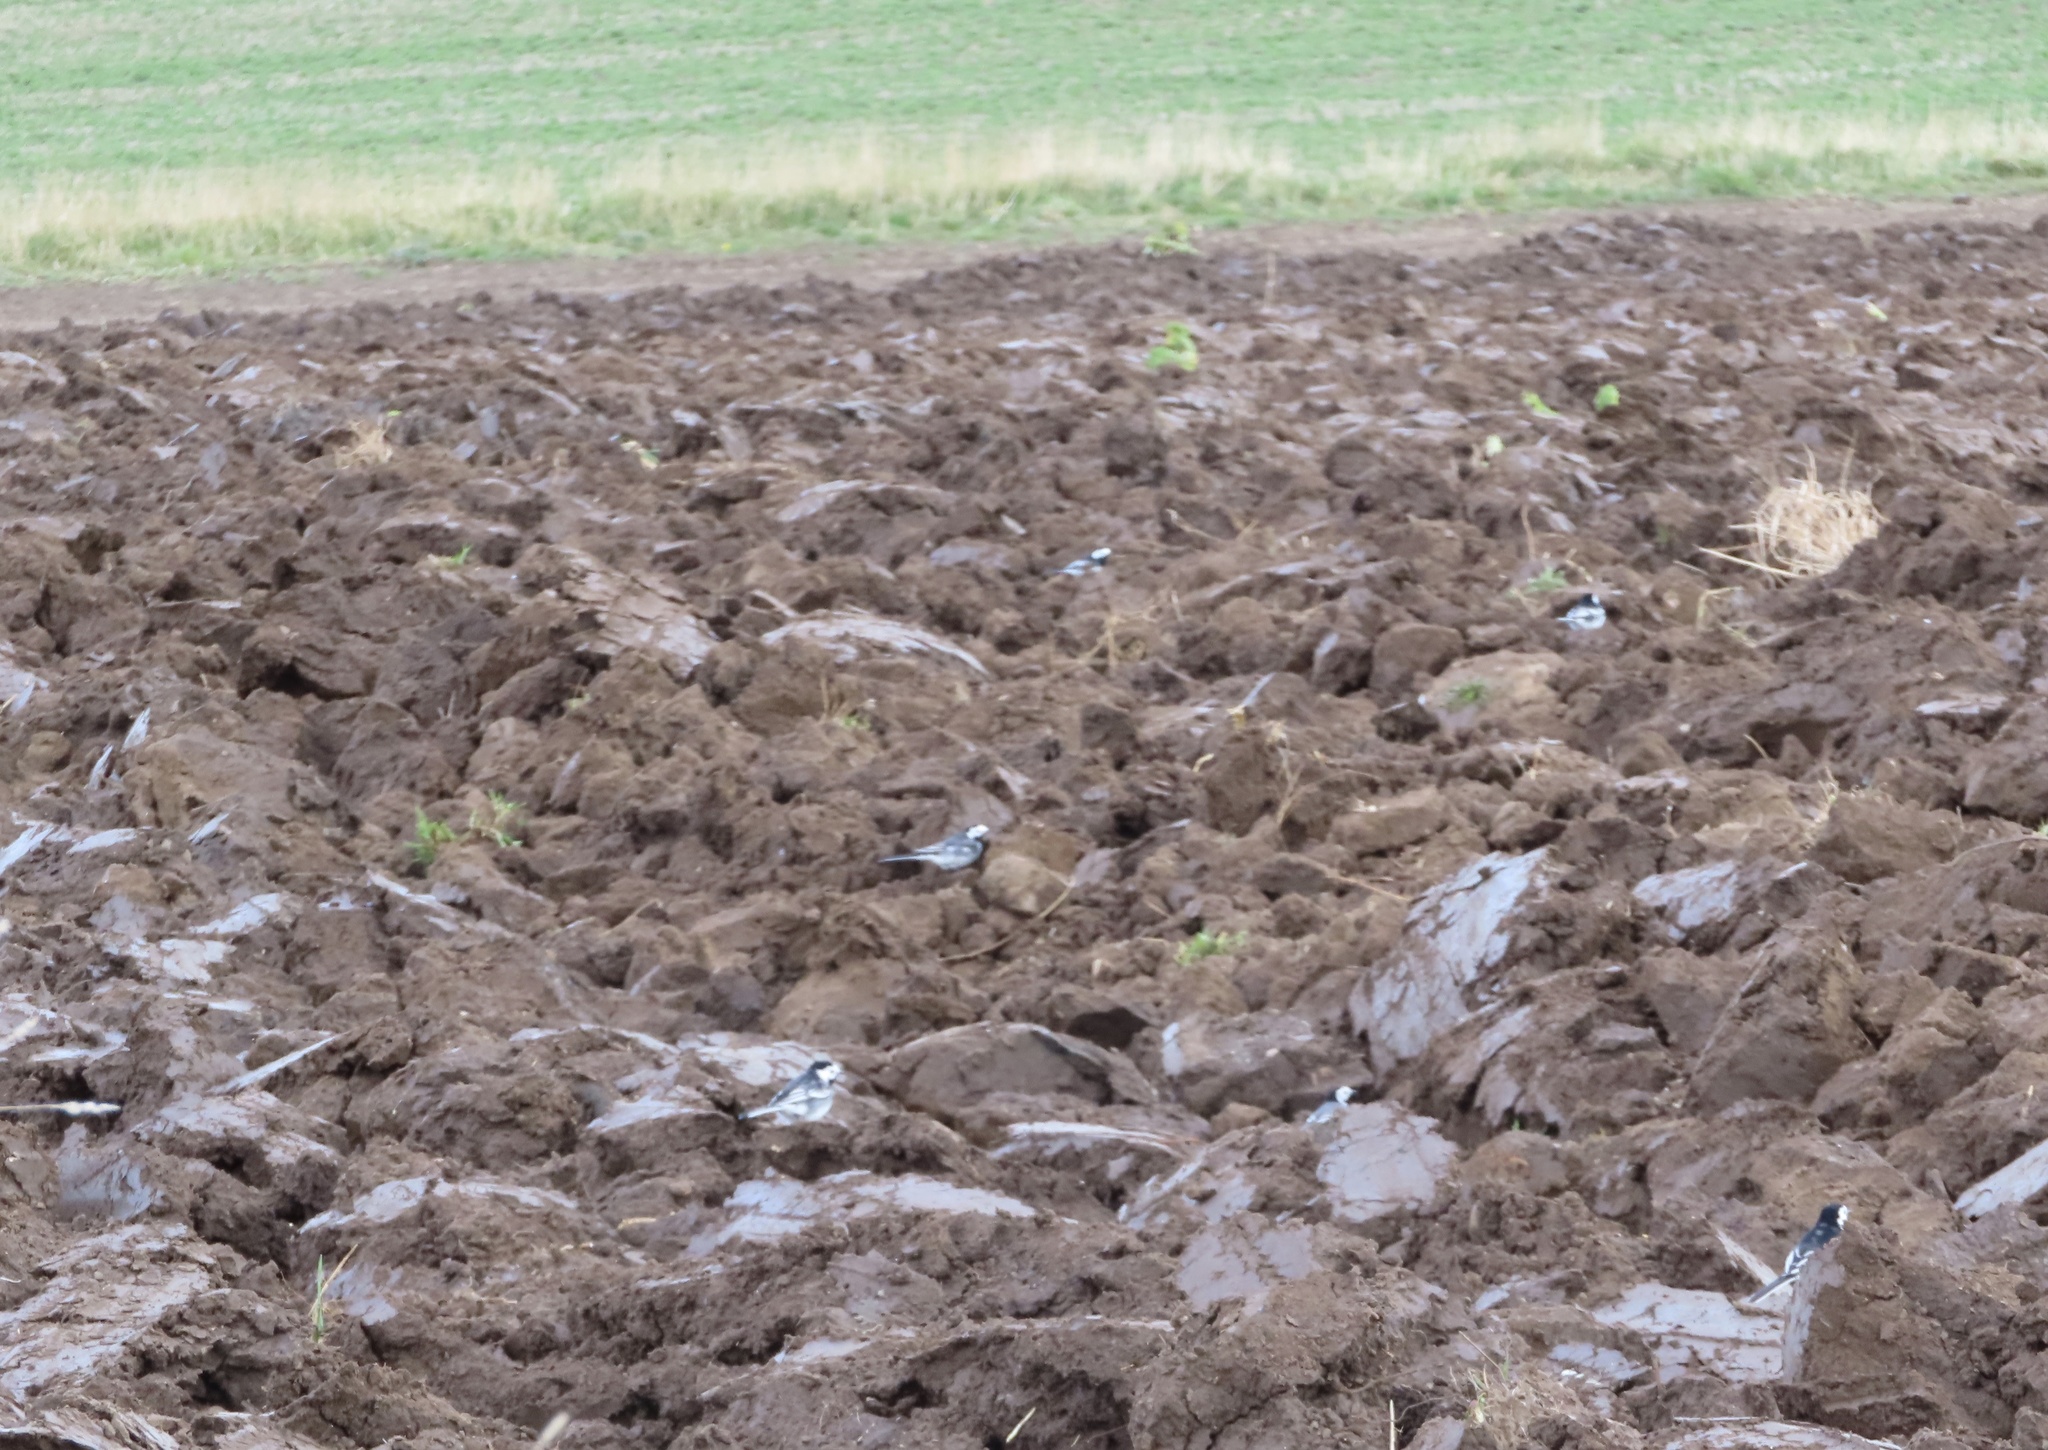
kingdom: Animalia
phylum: Chordata
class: Aves
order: Passeriformes
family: Motacillidae
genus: Motacilla
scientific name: Motacilla alba
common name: White wagtail
